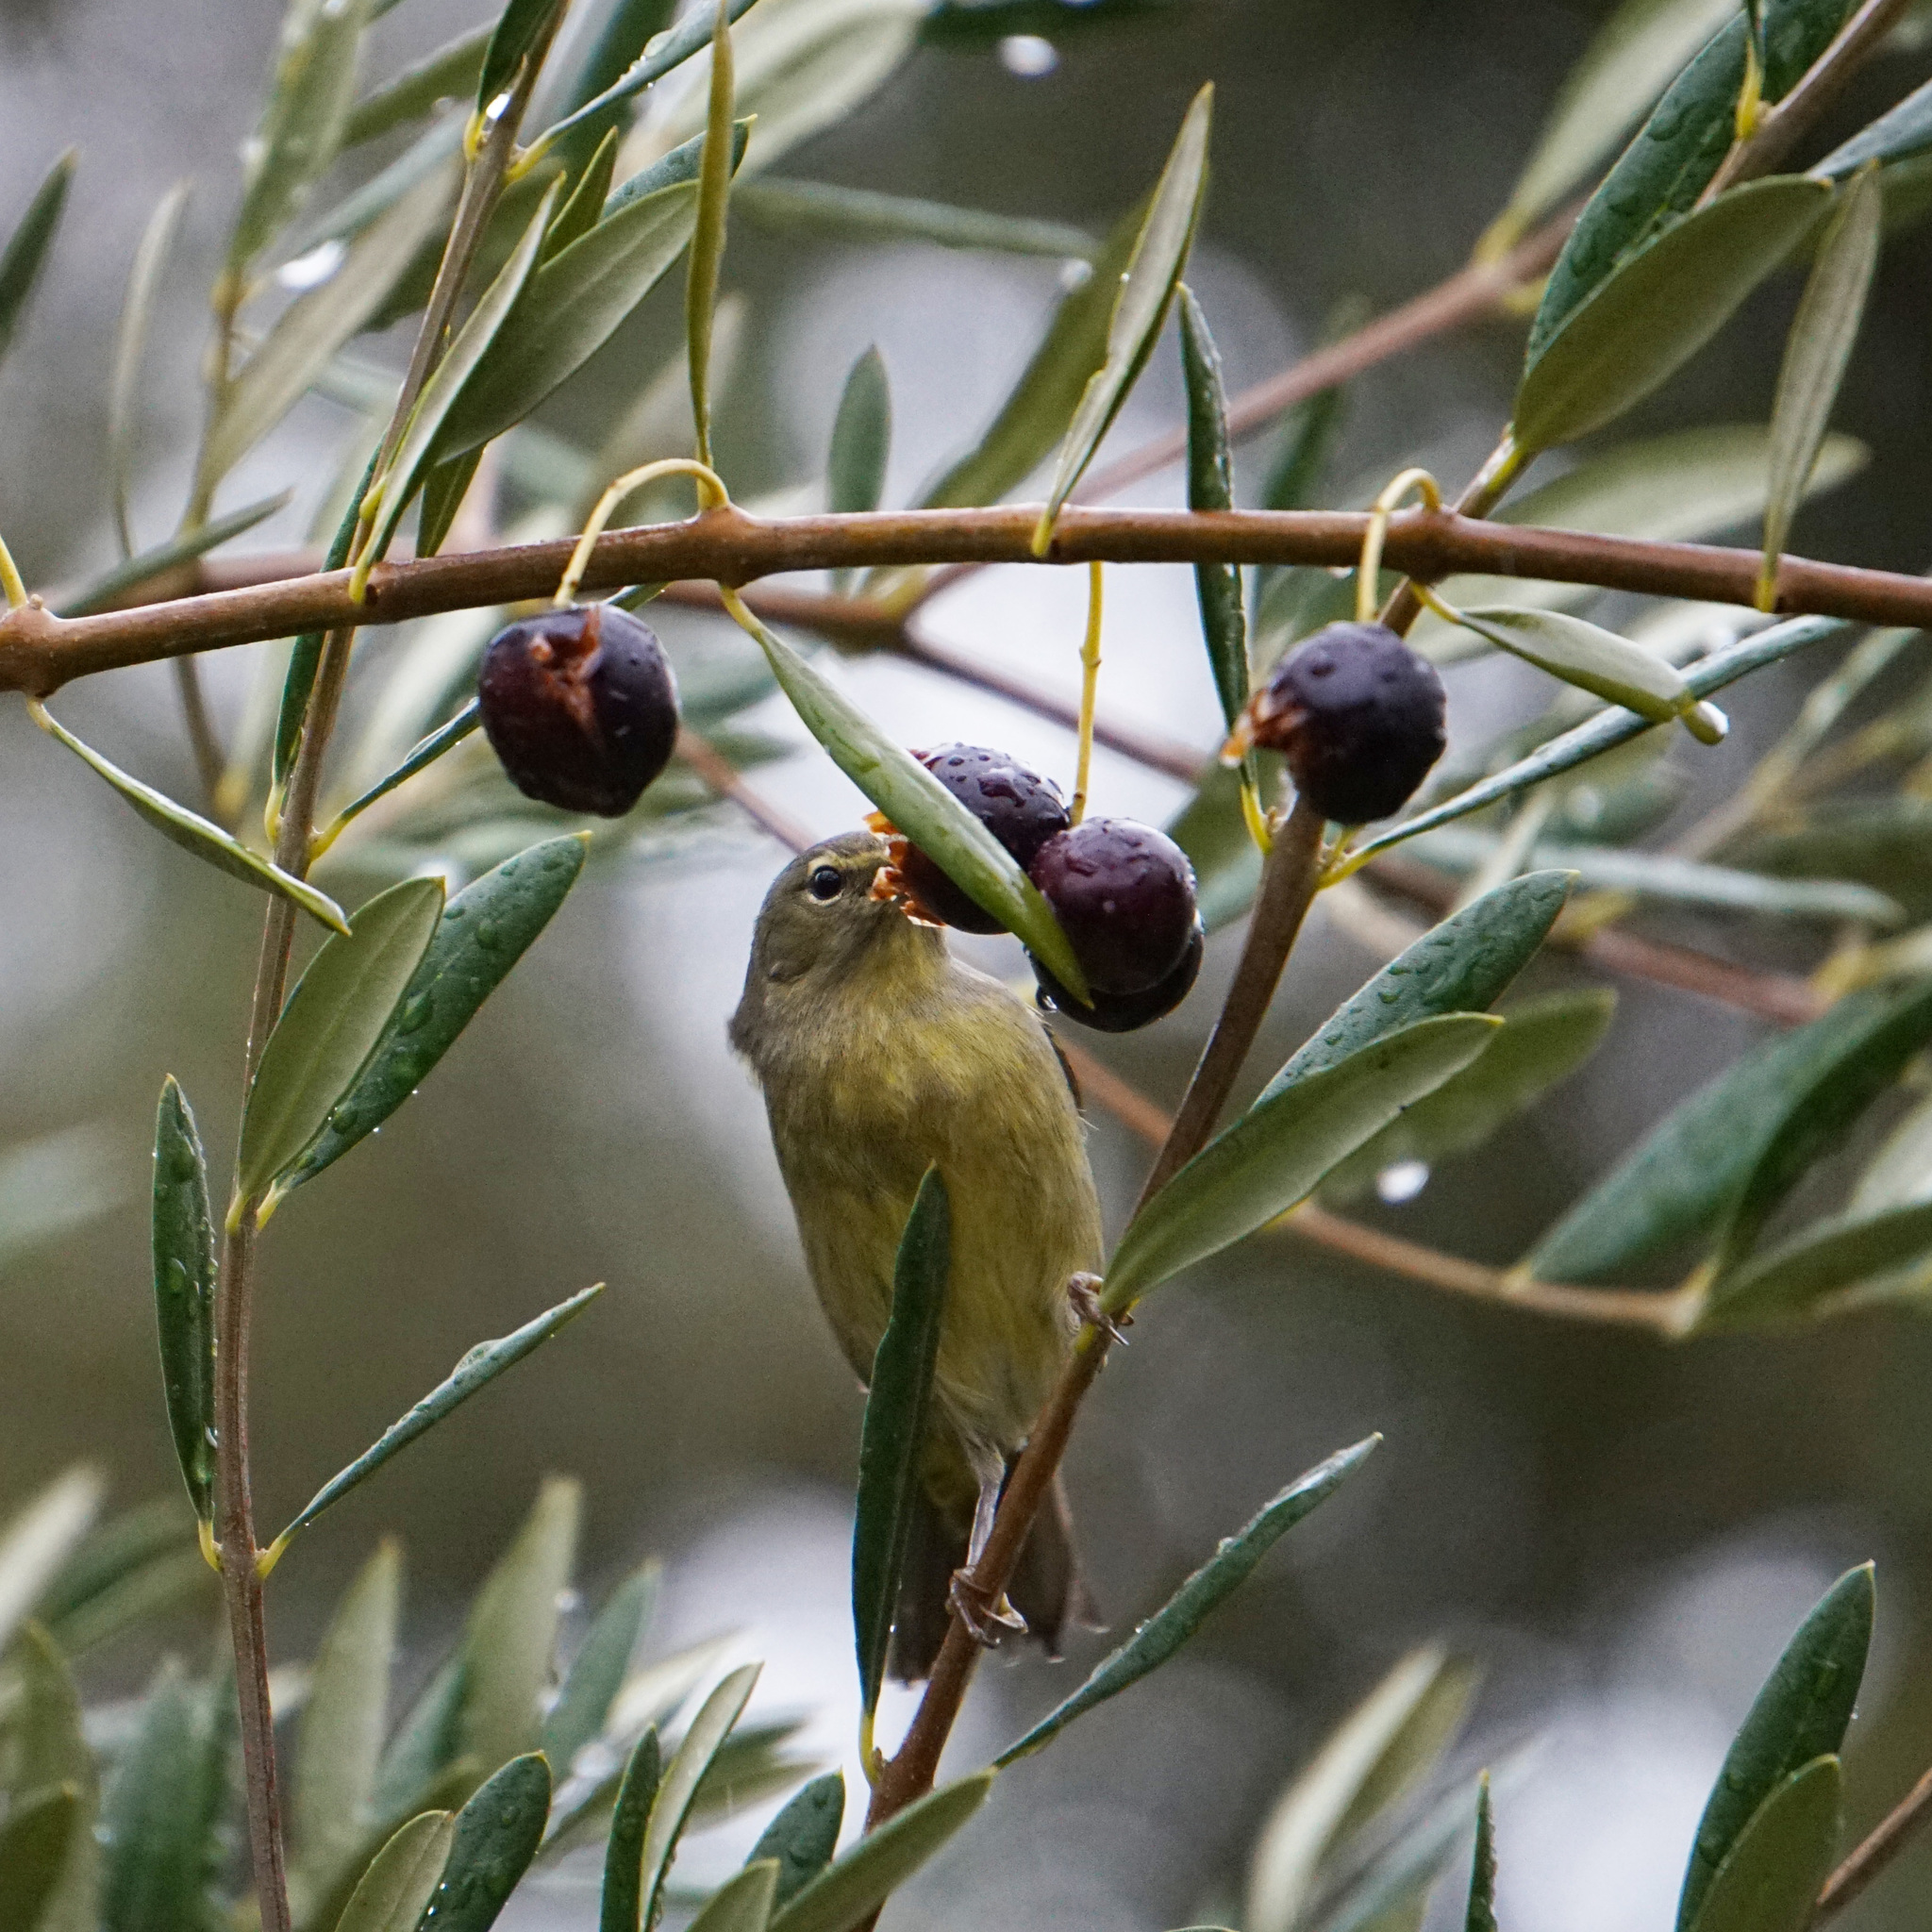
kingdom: Animalia
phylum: Chordata
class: Aves
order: Passeriformes
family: Parulidae
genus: Leiothlypis
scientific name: Leiothlypis celata
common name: Orange-crowned warbler
